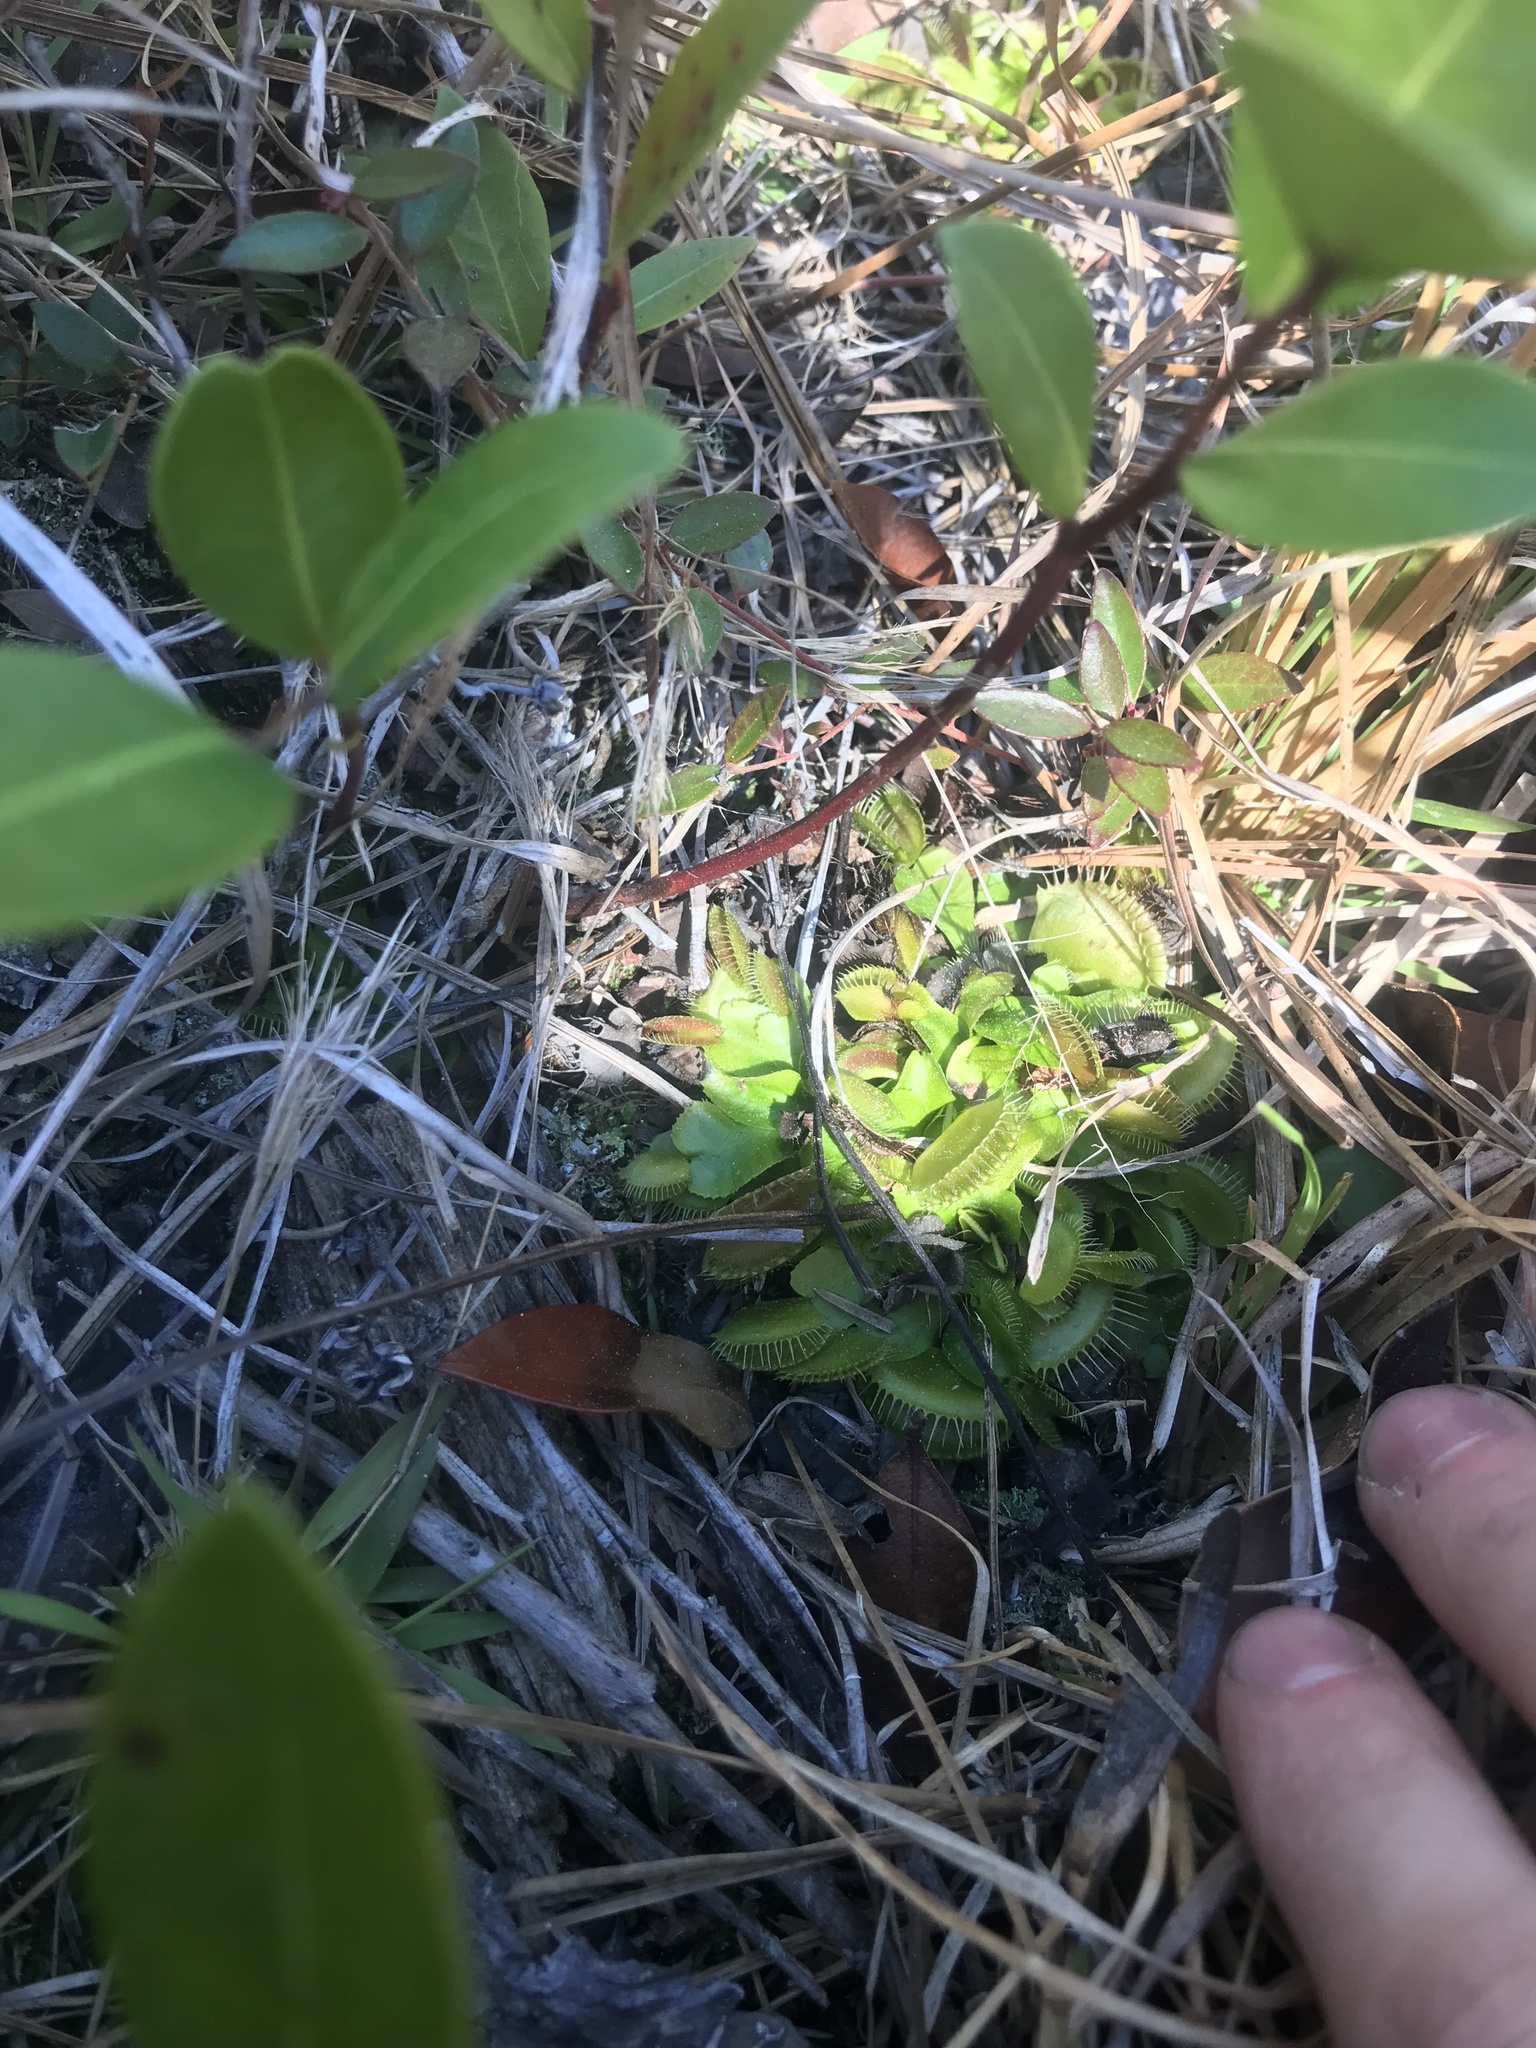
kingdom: Plantae
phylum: Tracheophyta
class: Magnoliopsida
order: Caryophyllales
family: Droseraceae
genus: Dionaea
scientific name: Dionaea muscipula
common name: Venus flytrap
